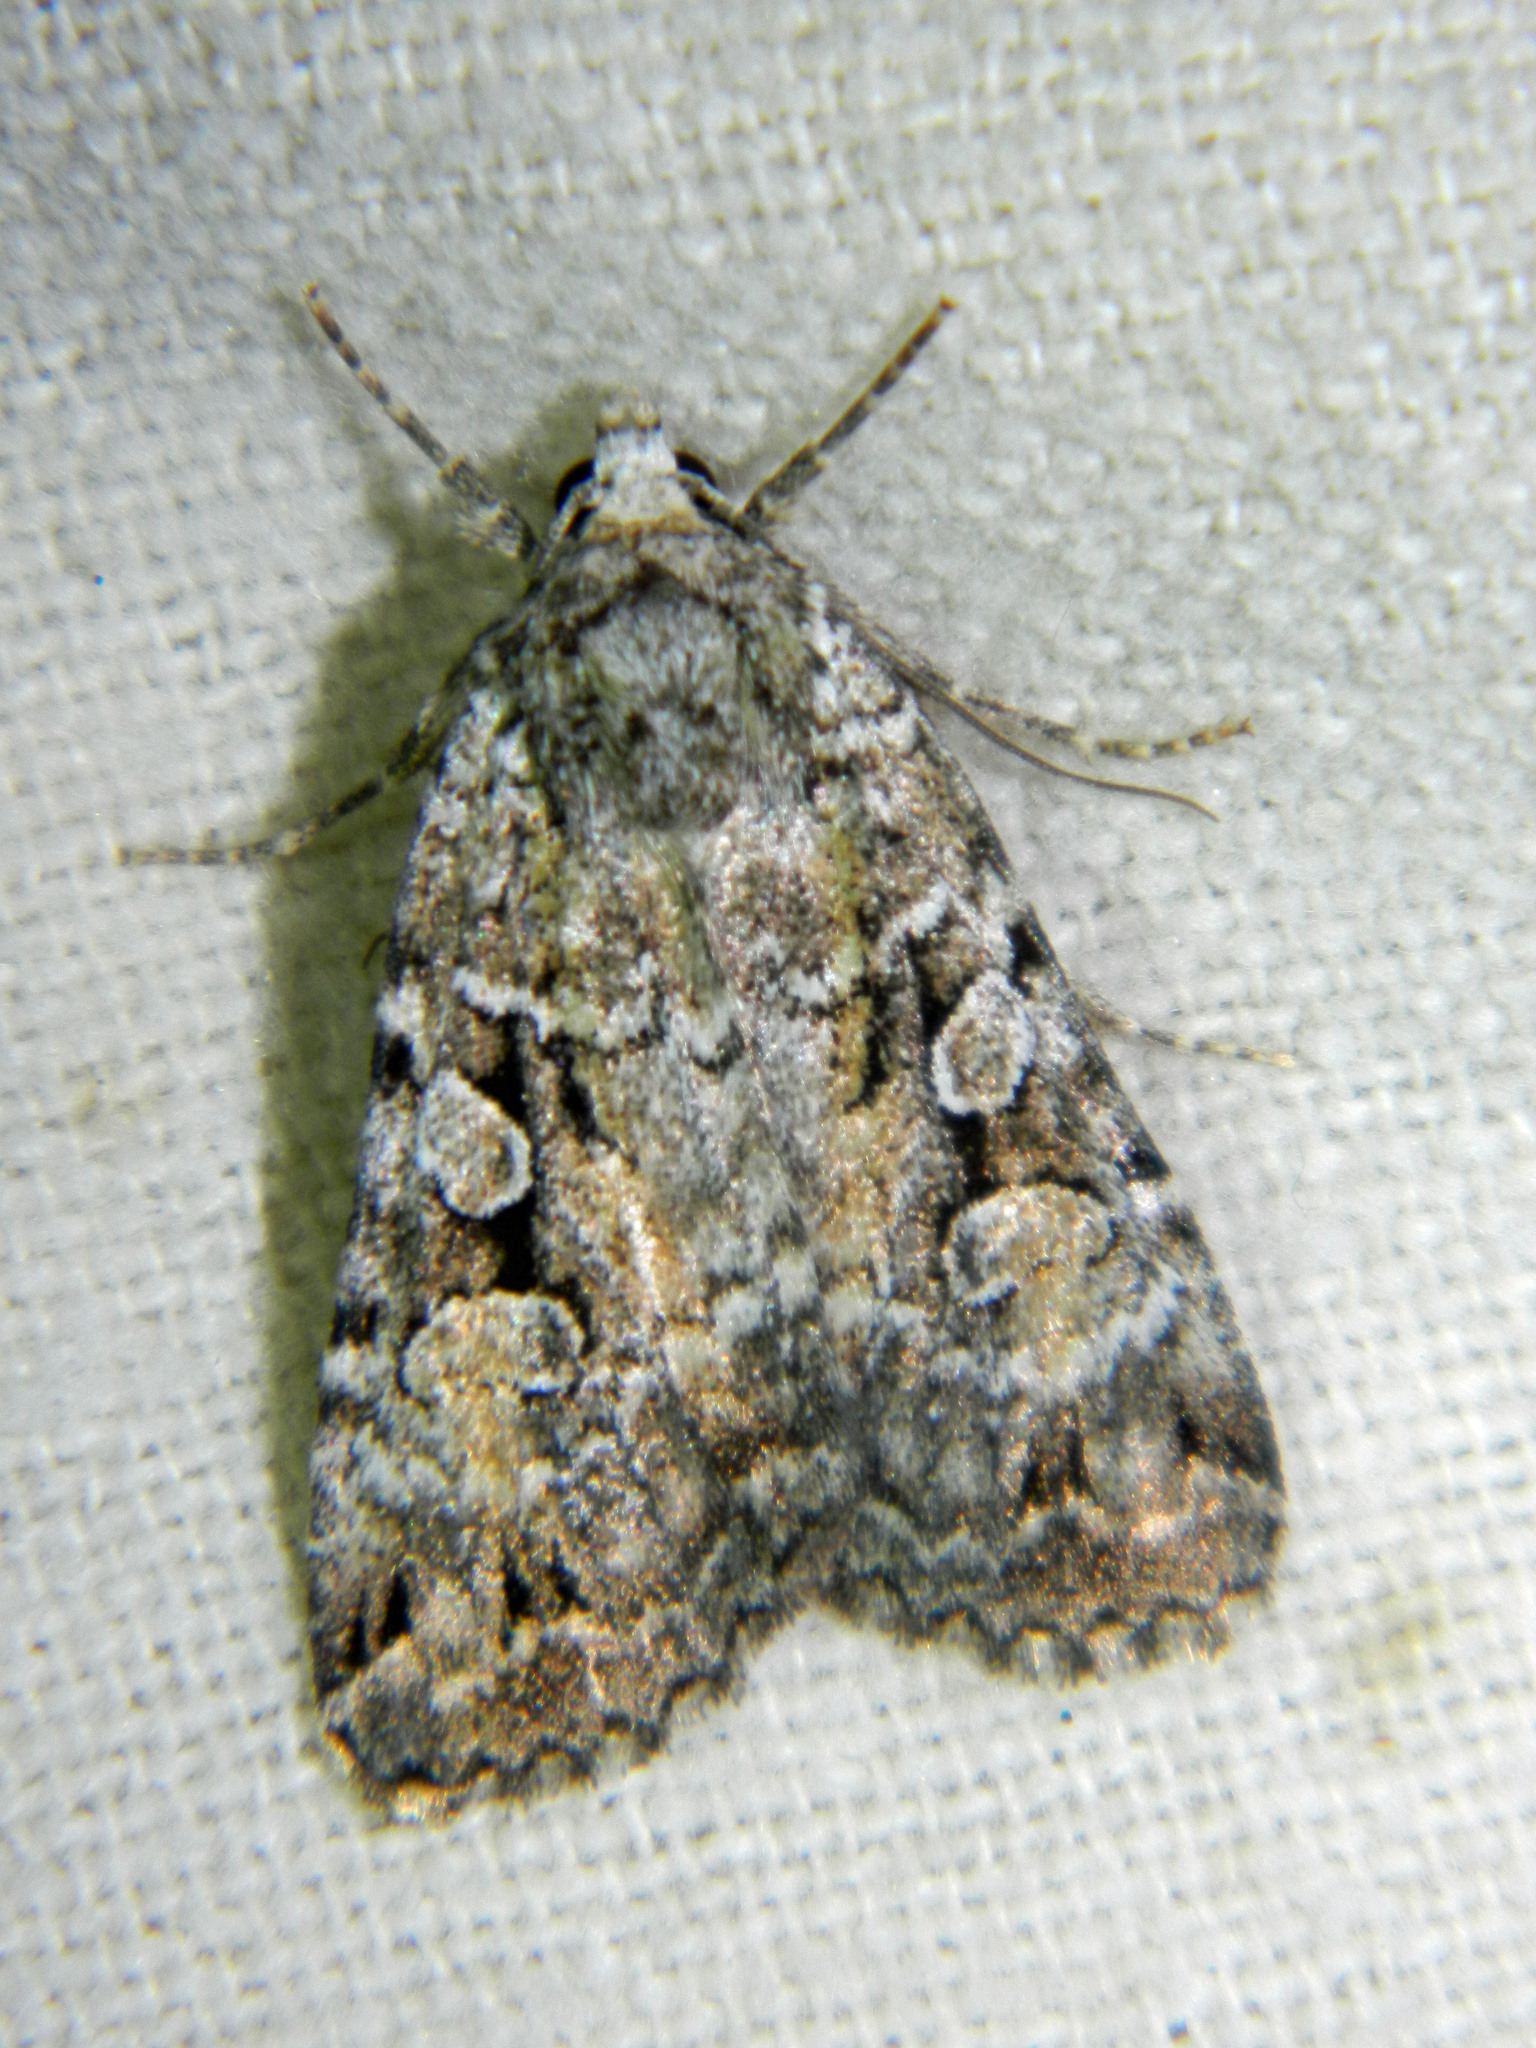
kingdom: Animalia
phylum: Arthropoda
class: Insecta
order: Lepidoptera
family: Noctuidae
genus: Anaplectoides
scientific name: Anaplectoides pressus
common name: Dappled dart
